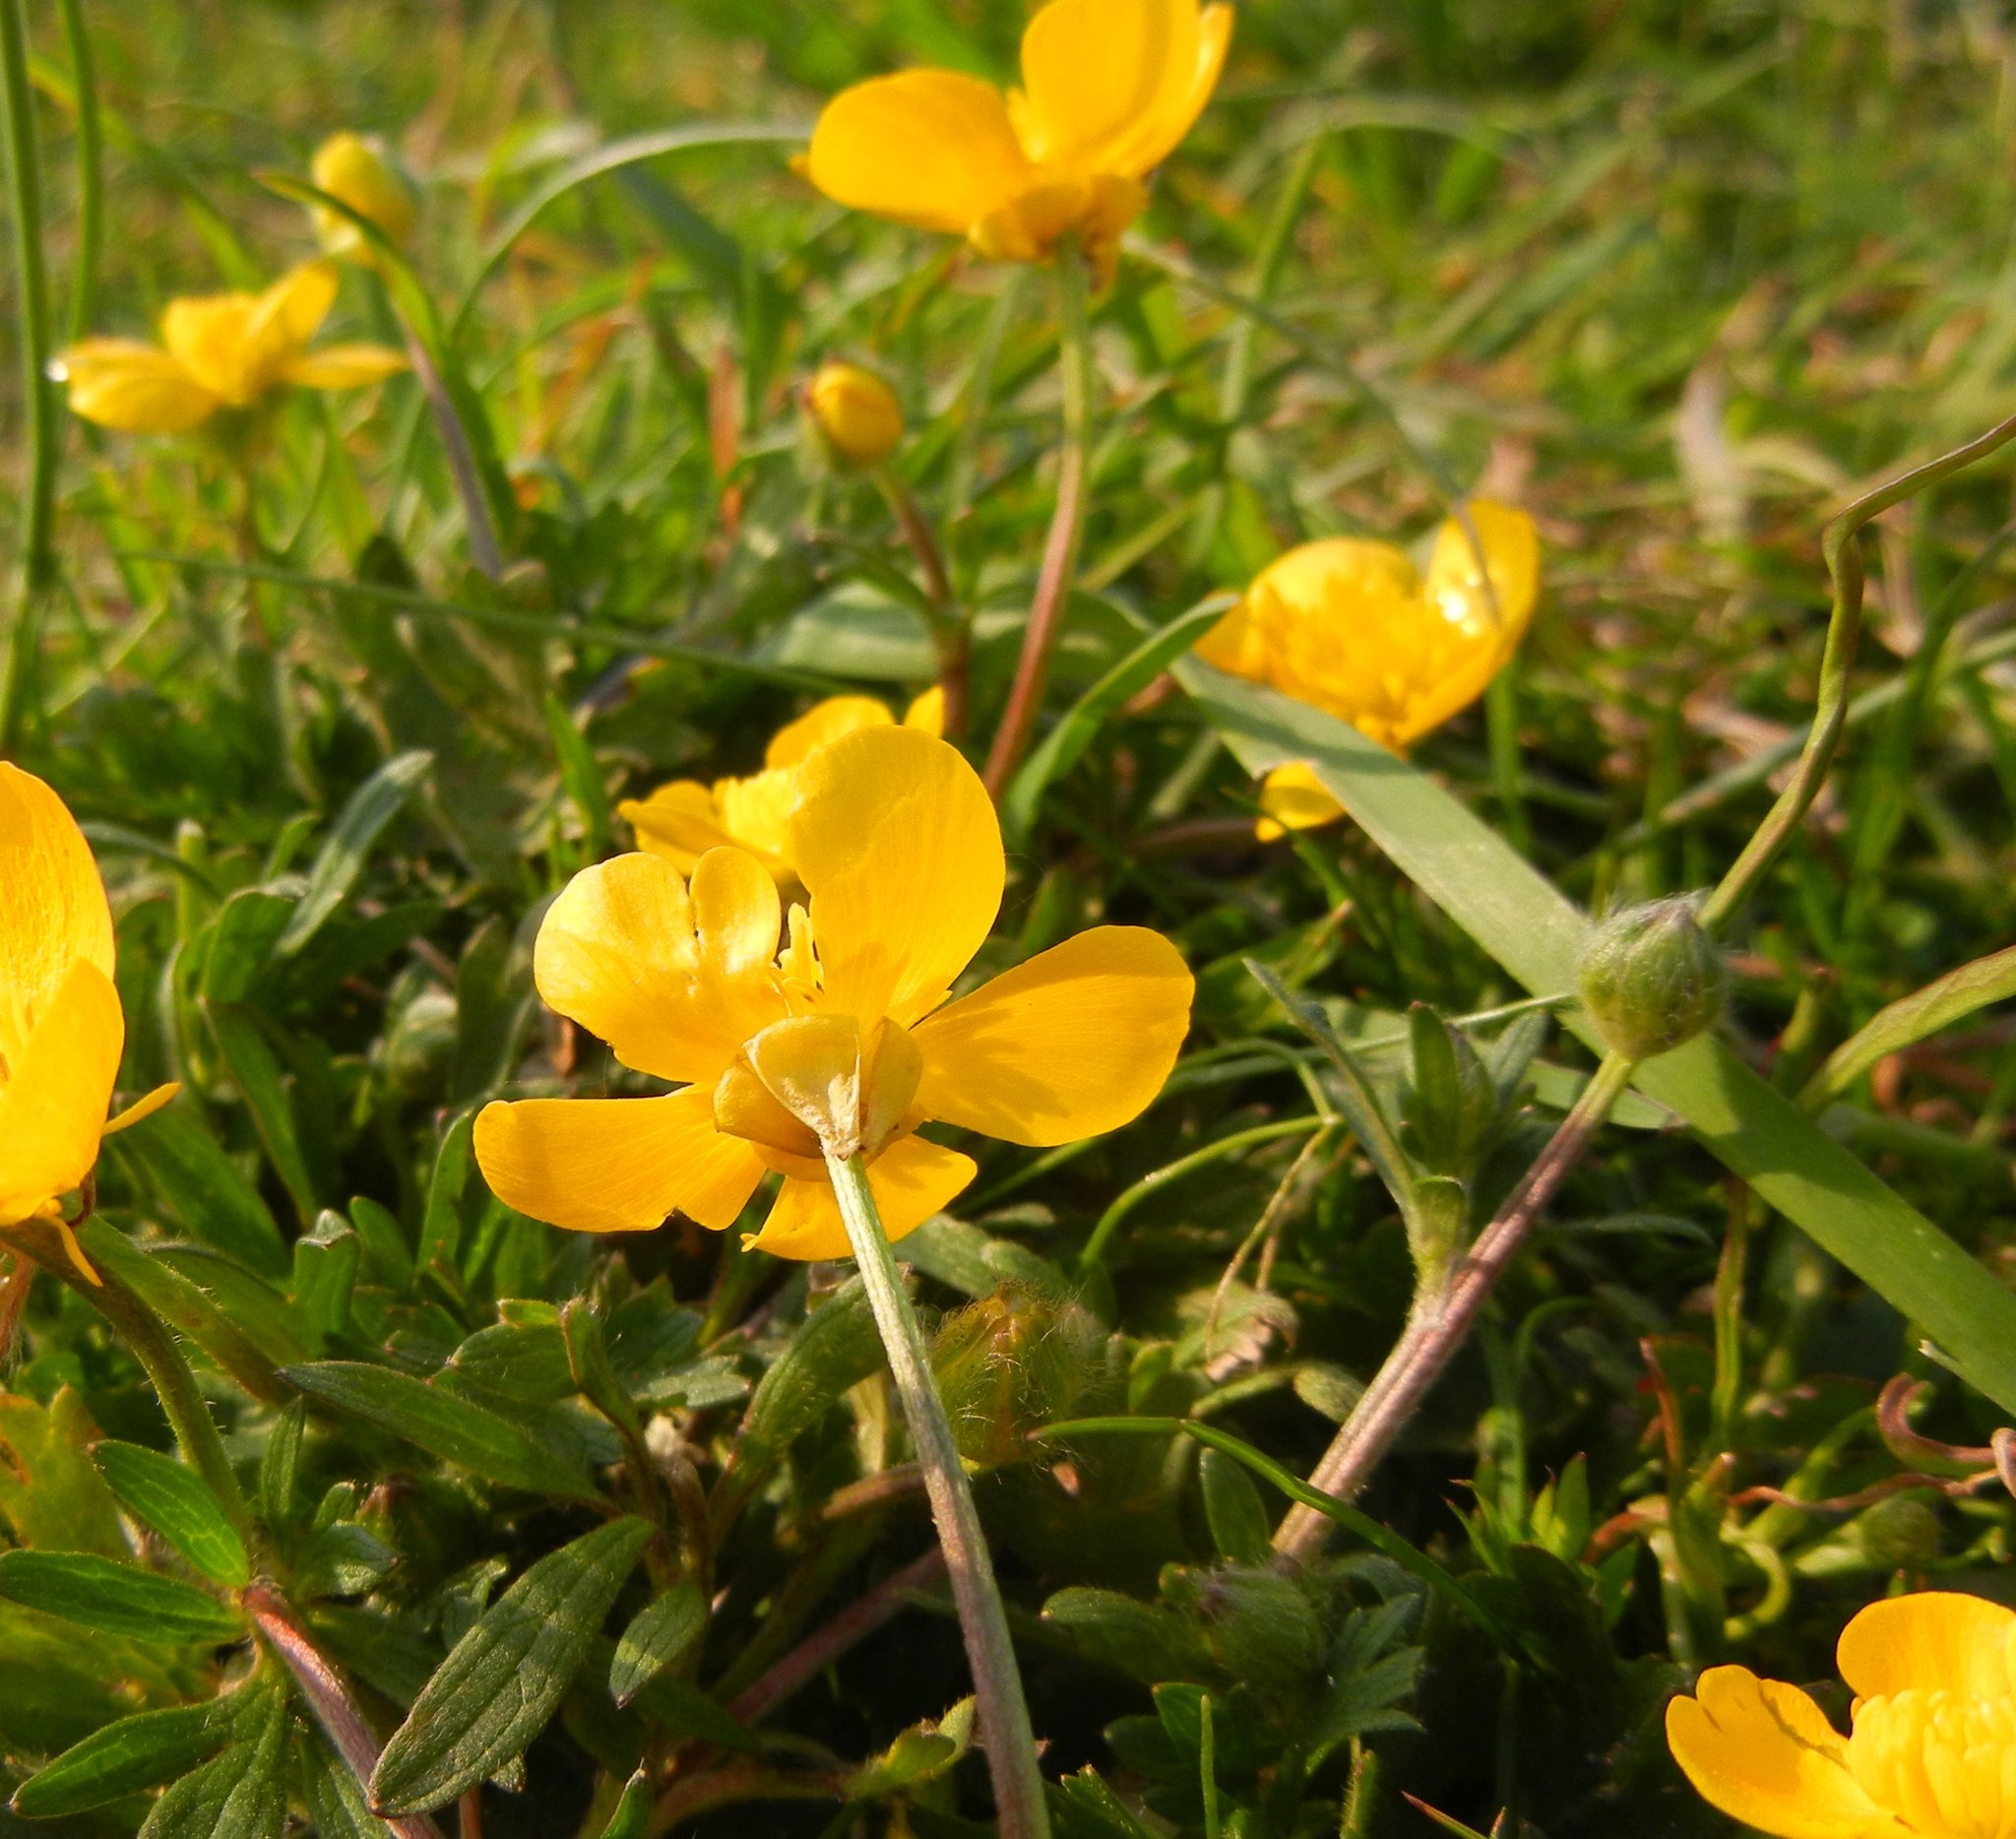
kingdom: Plantae
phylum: Tracheophyta
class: Magnoliopsida
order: Ranunculales
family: Ranunculaceae
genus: Ranunculus
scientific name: Ranunculus bulbosus
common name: Bulbous buttercup
